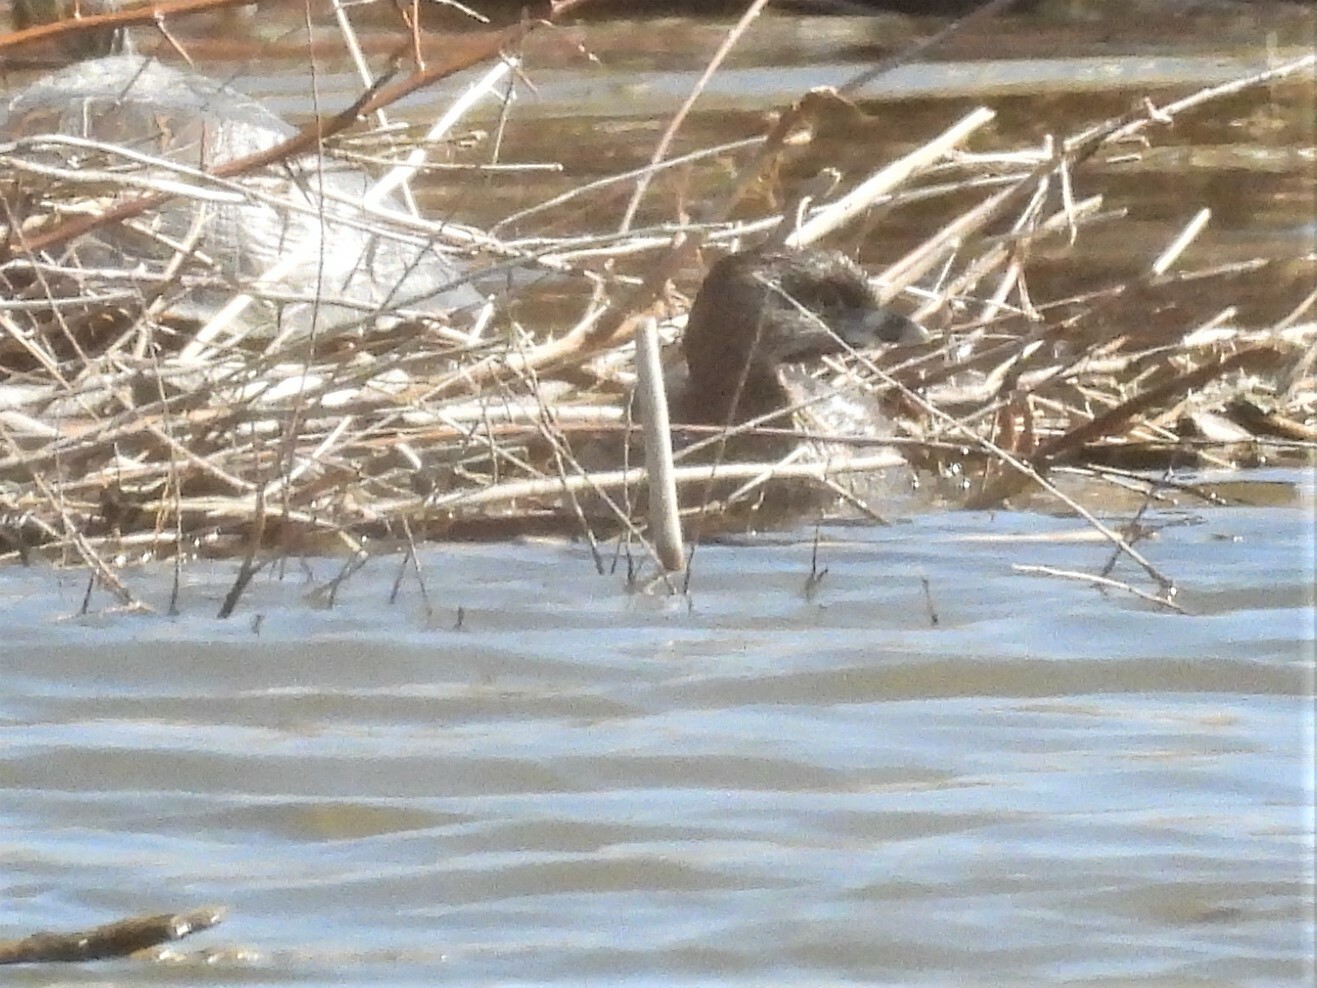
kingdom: Animalia
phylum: Chordata
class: Aves
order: Podicipediformes
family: Podicipedidae
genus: Podilymbus
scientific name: Podilymbus podiceps
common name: Pied-billed grebe
